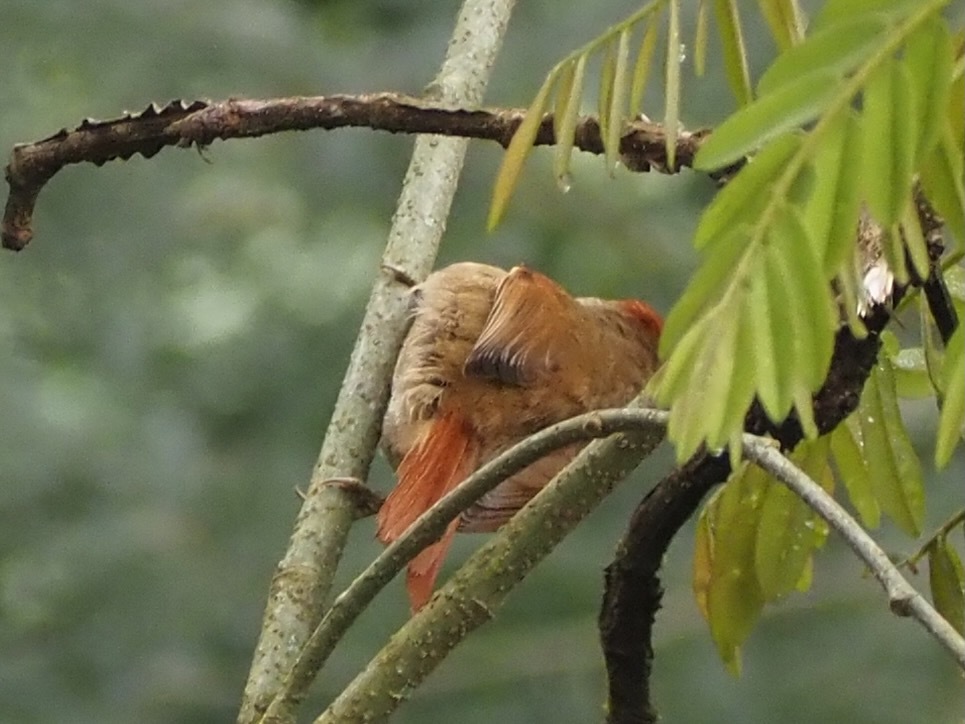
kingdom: Animalia
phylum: Chordata
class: Aves
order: Passeriformes
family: Furnariidae
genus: Cranioleuca
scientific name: Cranioleuca pallida
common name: Pallid spinetail
